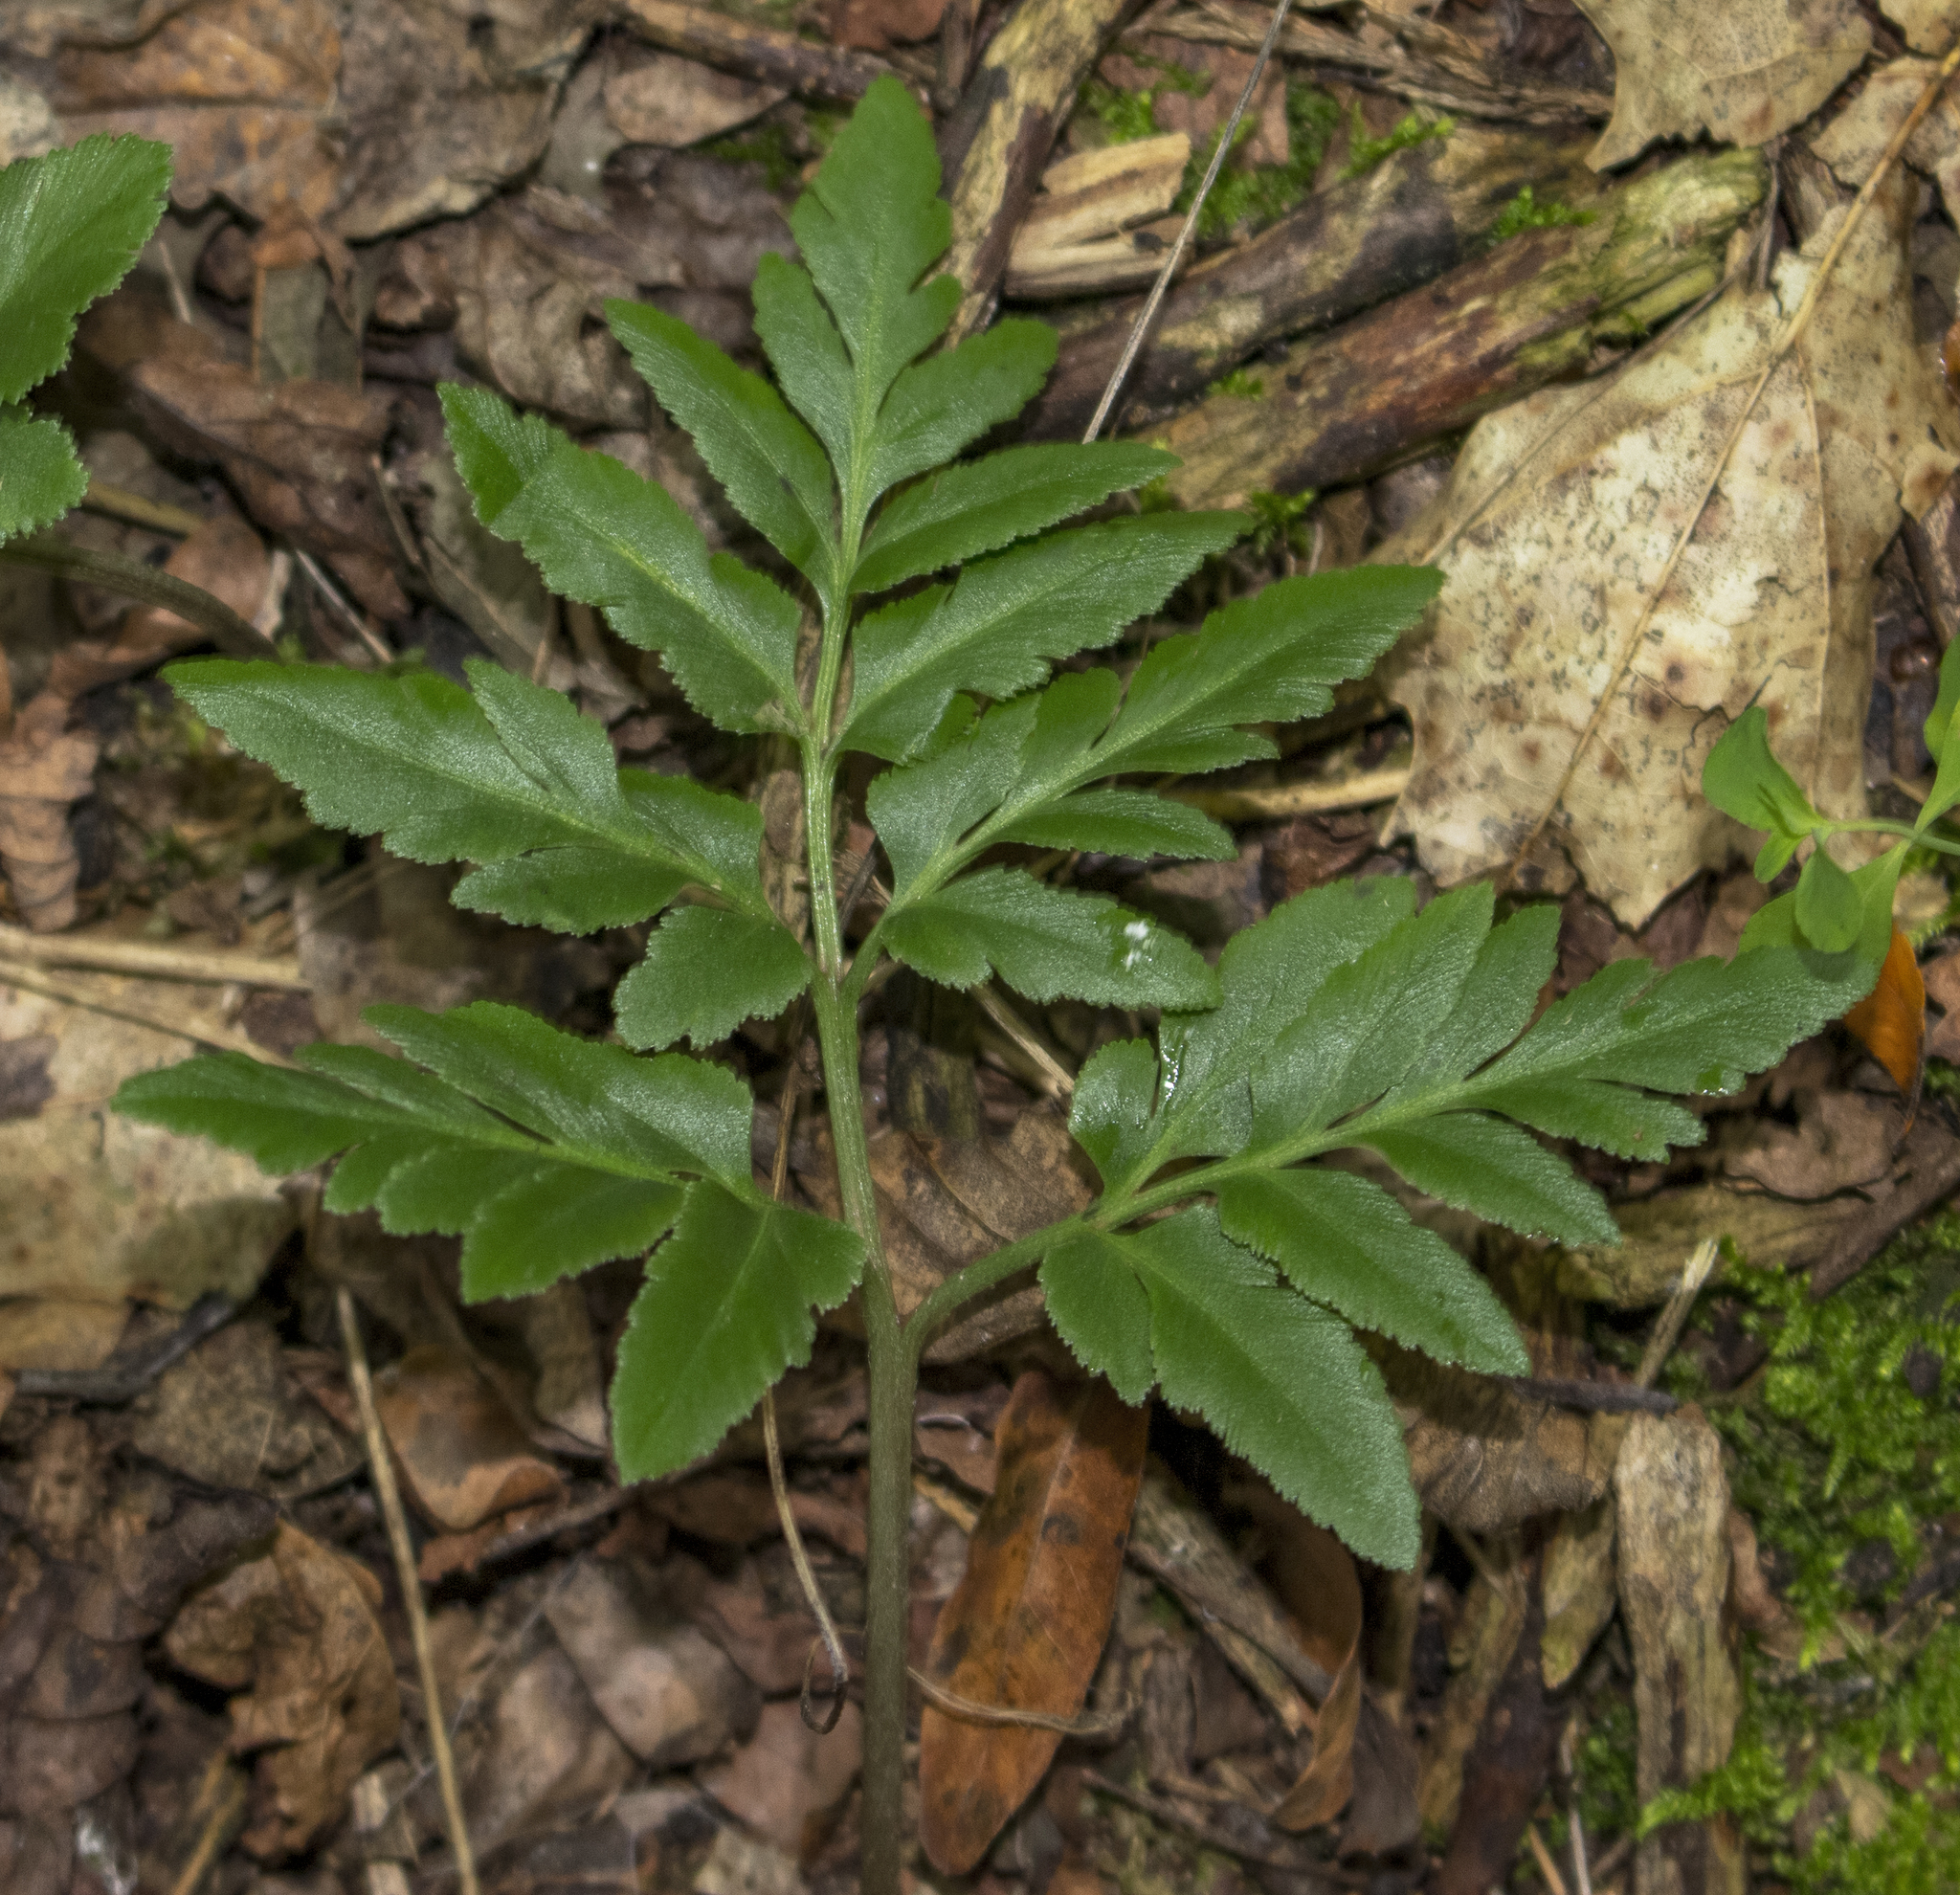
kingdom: Plantae
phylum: Tracheophyta
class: Polypodiopsida
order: Ophioglossales
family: Ophioglossaceae
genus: Sceptridium
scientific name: Sceptridium dissectum
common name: Cut-leaved grapefern
